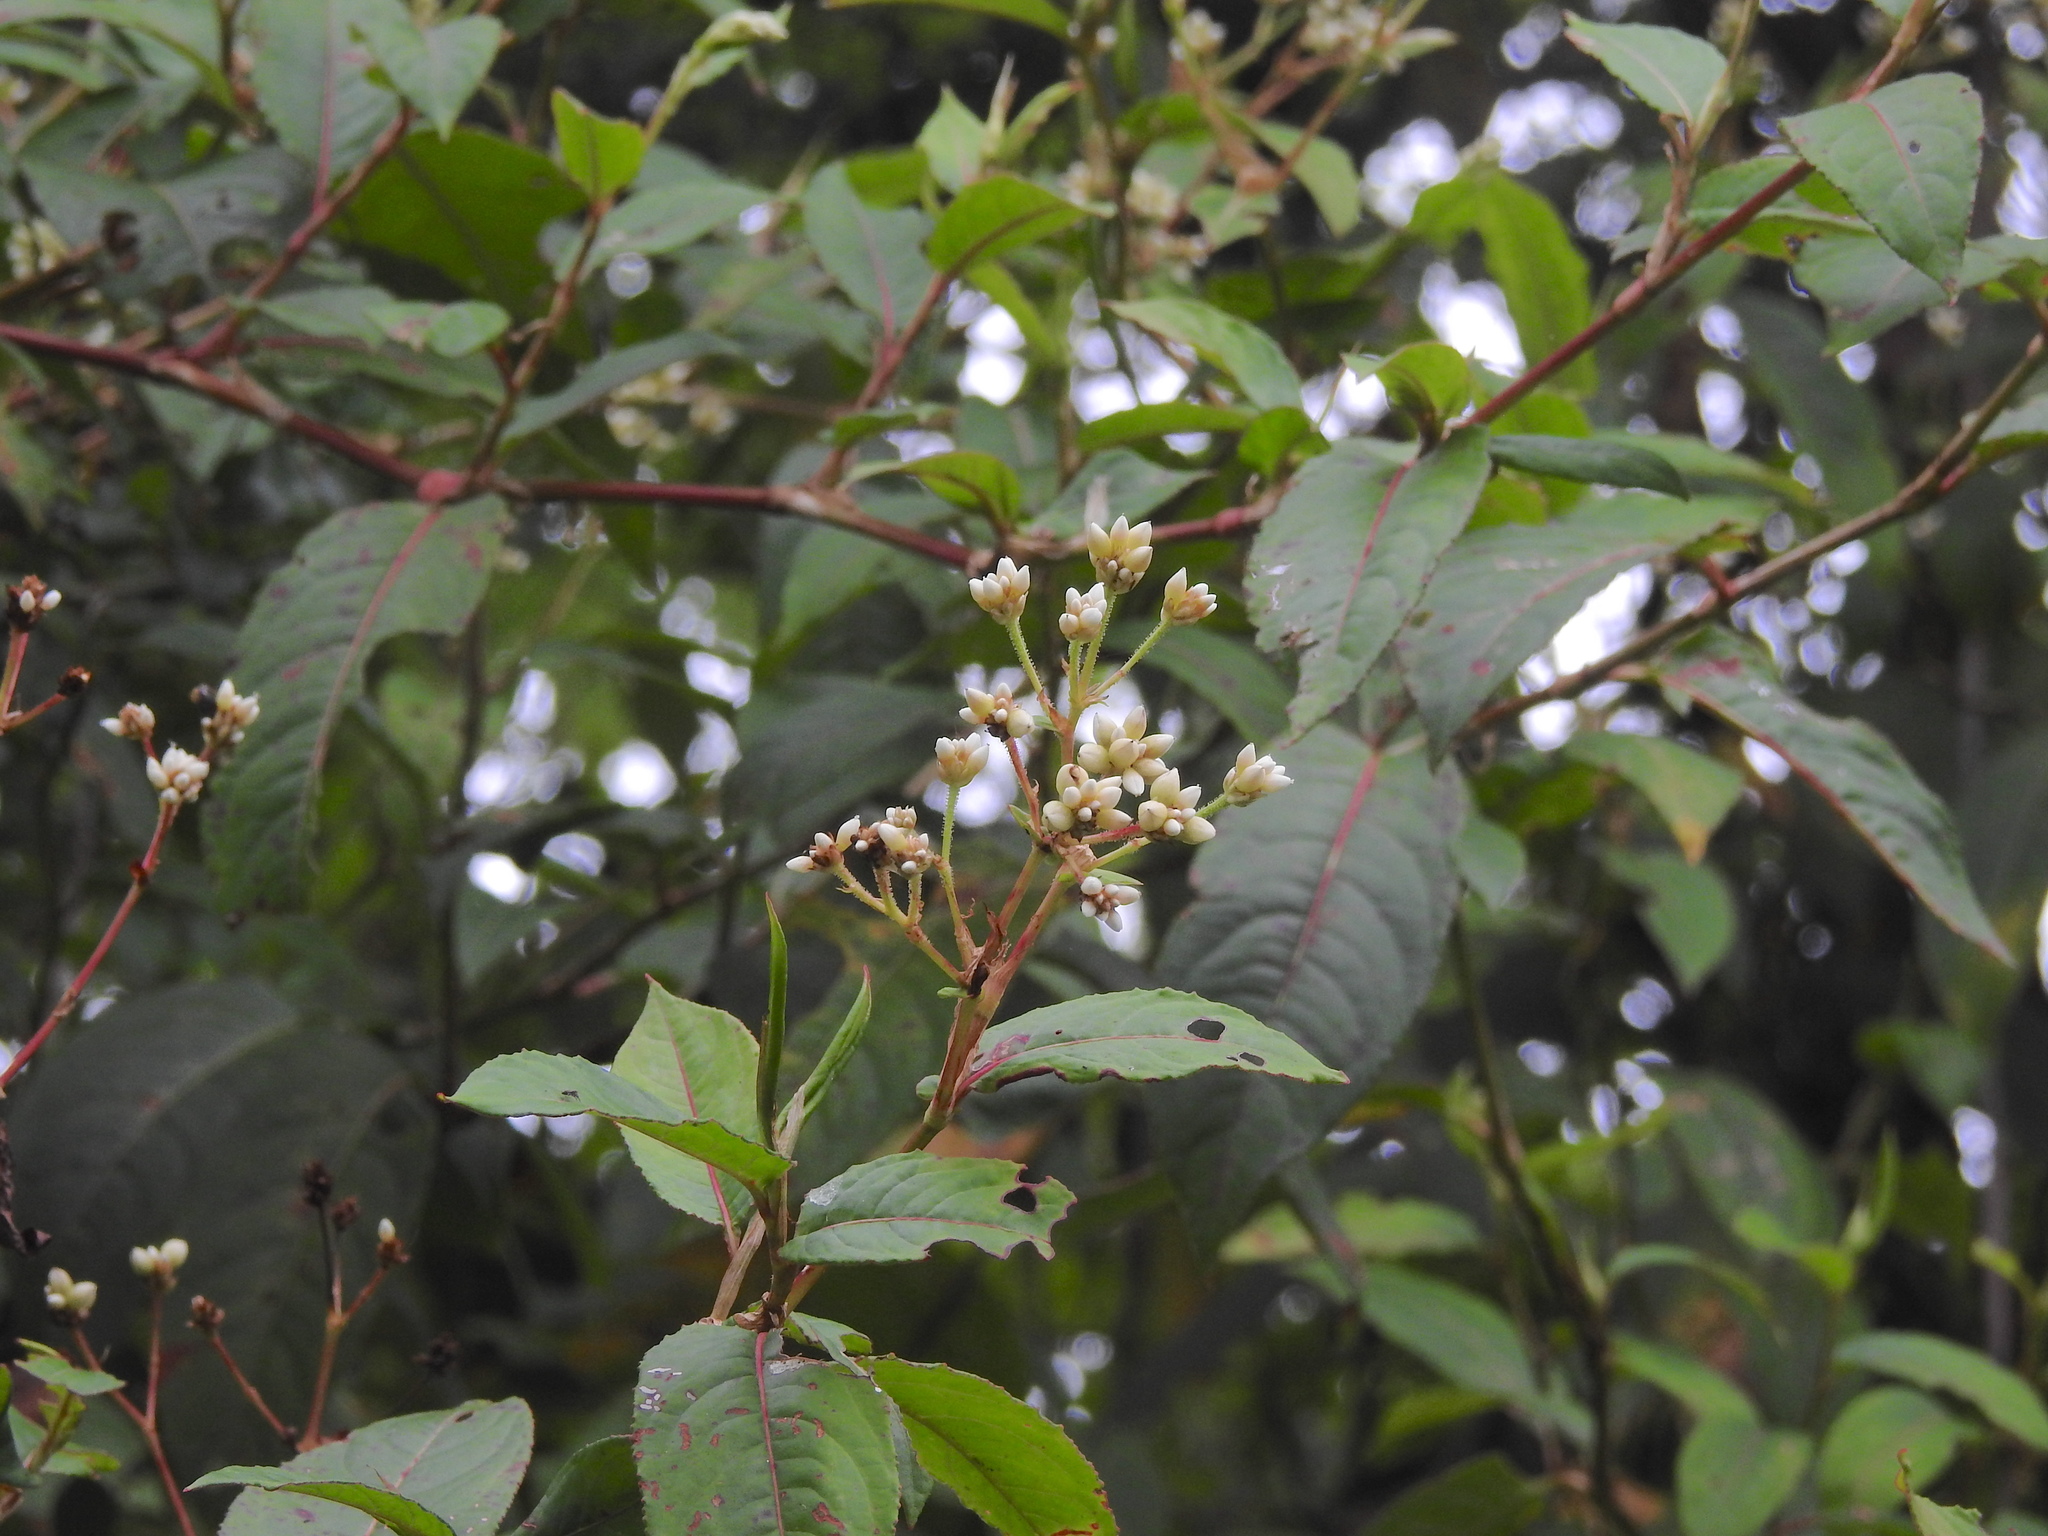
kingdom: Plantae
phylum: Tracheophyta
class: Magnoliopsida
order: Caryophyllales
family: Polygonaceae
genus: Persicaria
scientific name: Persicaria chinensis
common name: Chinese knotweed
